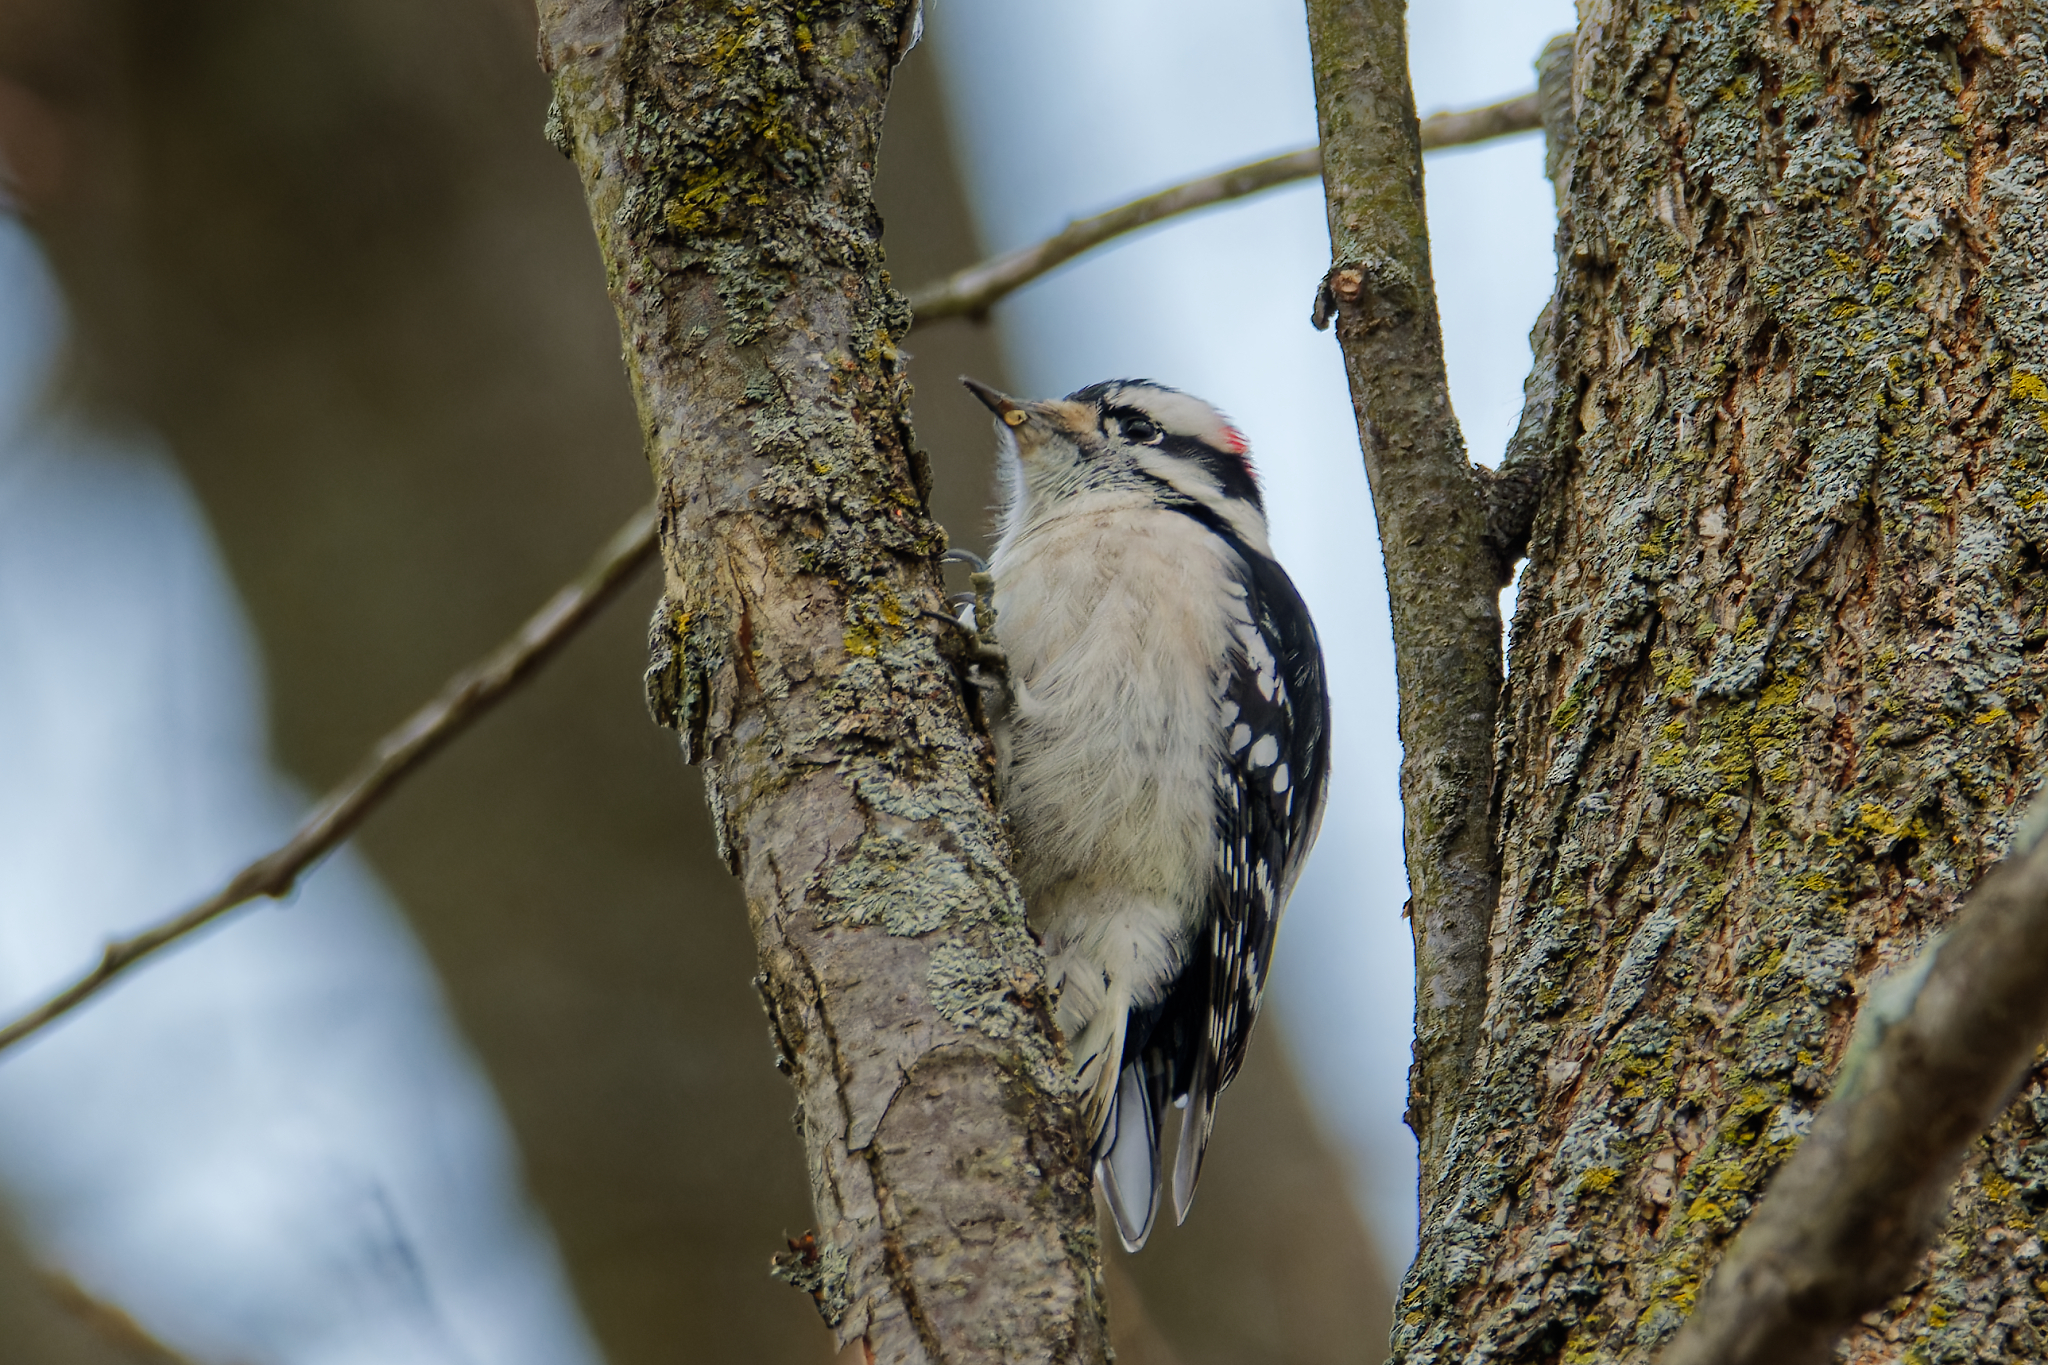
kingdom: Animalia
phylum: Chordata
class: Aves
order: Piciformes
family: Picidae
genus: Dryobates
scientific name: Dryobates pubescens
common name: Downy woodpecker
